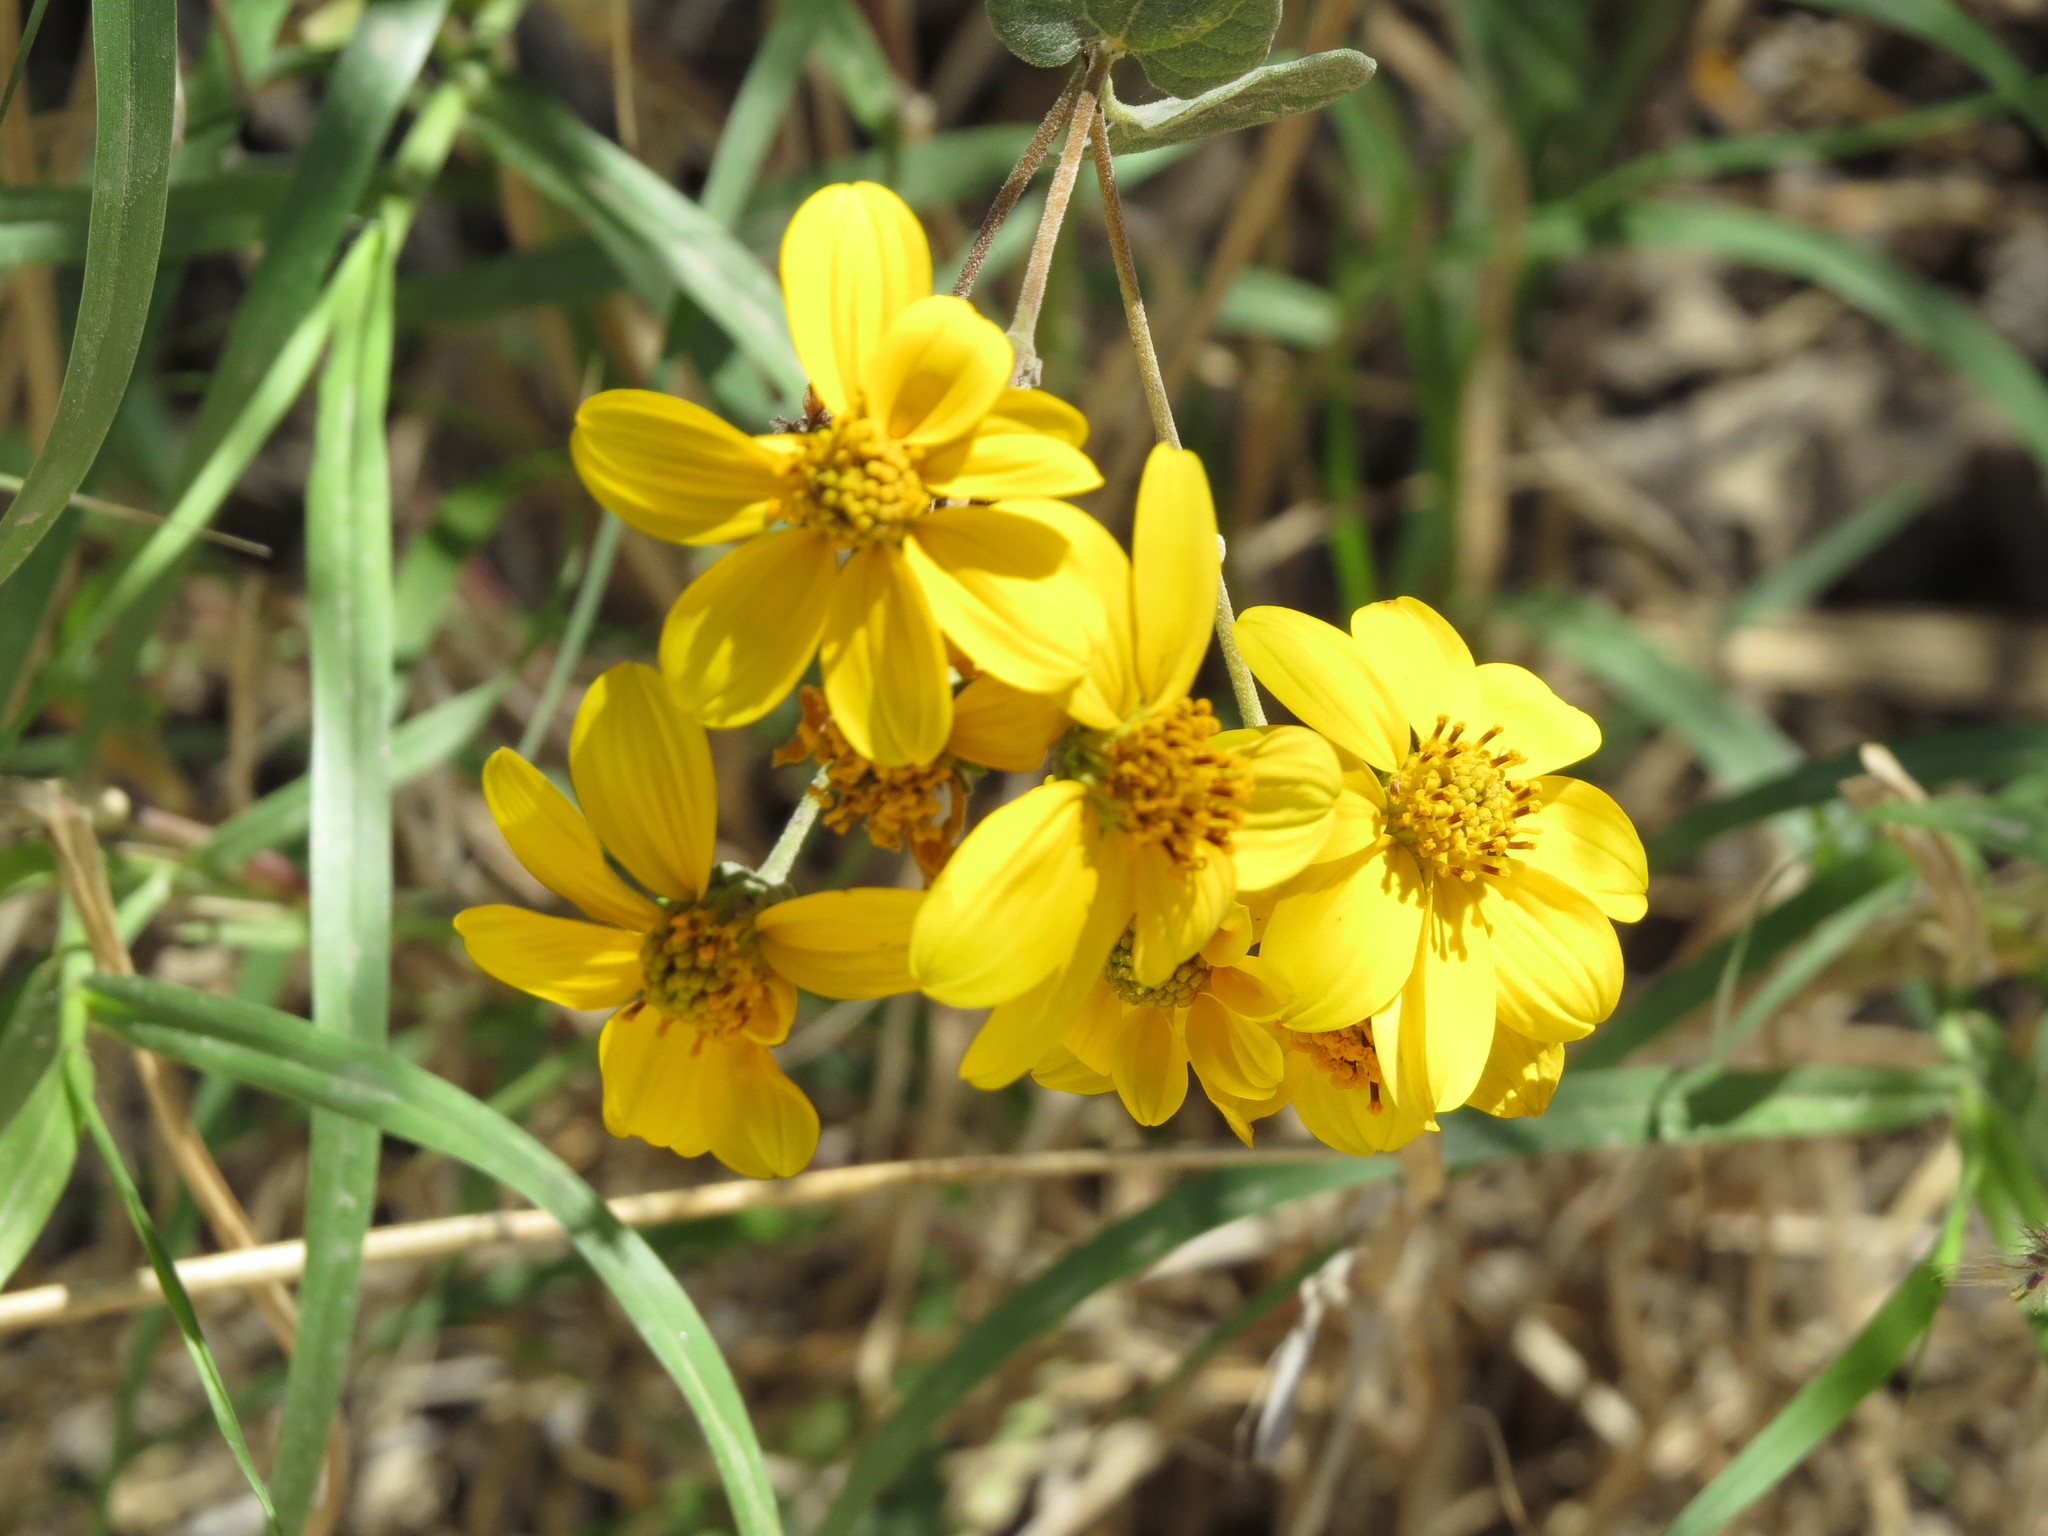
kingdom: Plantae
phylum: Tracheophyta
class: Magnoliopsida
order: Asterales
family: Asteraceae
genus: Bahiopsis
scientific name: Bahiopsis deltoidea
